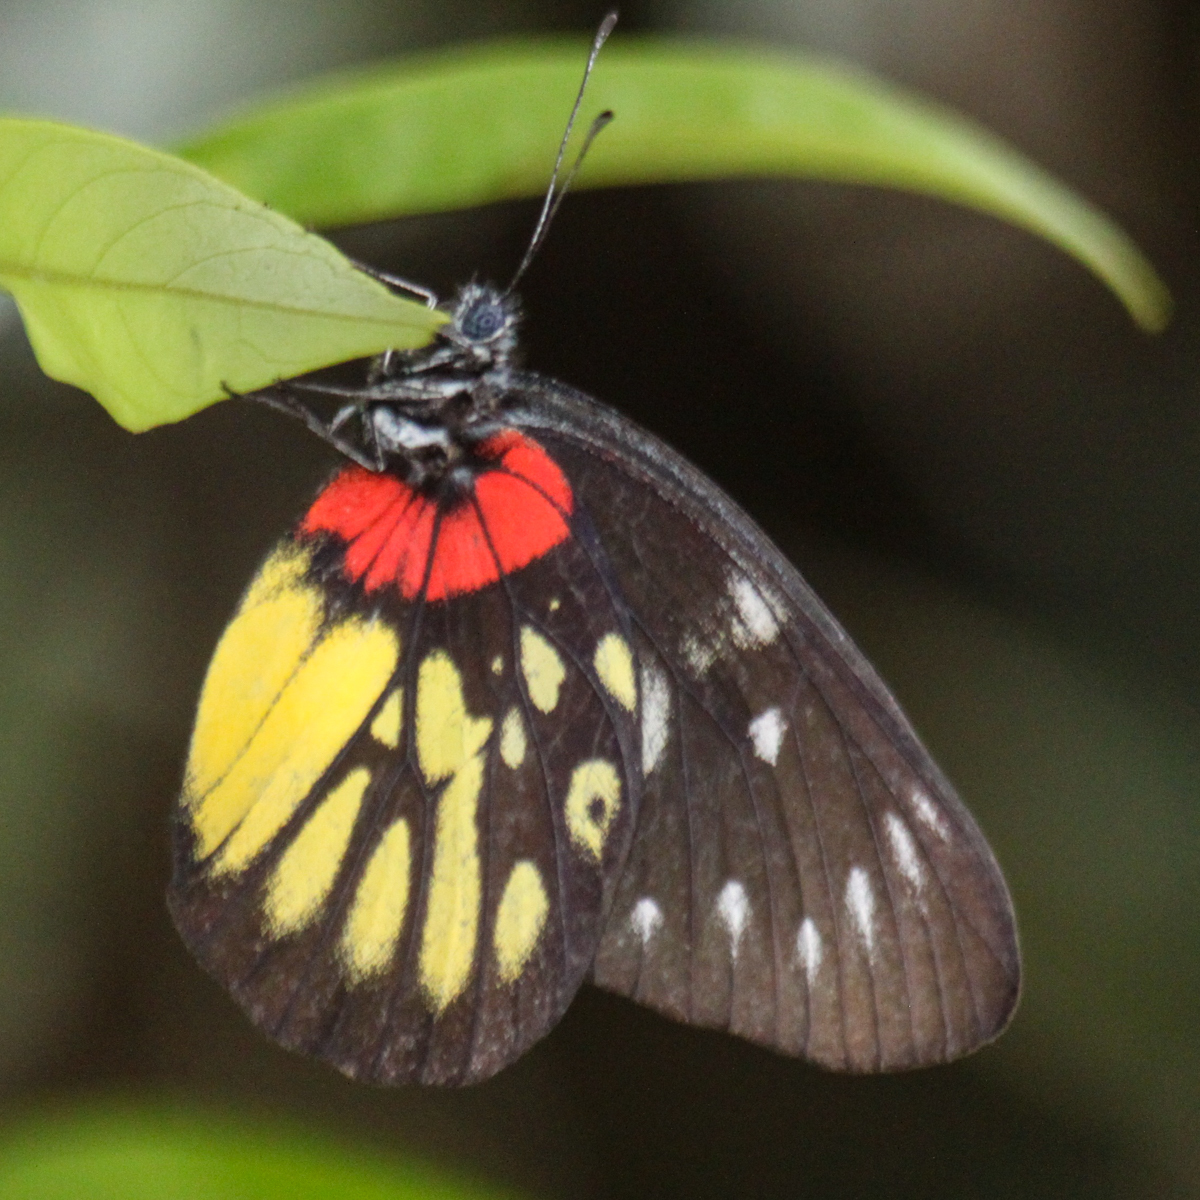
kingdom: Animalia
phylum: Arthropoda
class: Insecta
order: Lepidoptera
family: Pieridae
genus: Delias
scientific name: Delias pasithoe
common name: Red-base jezebel
